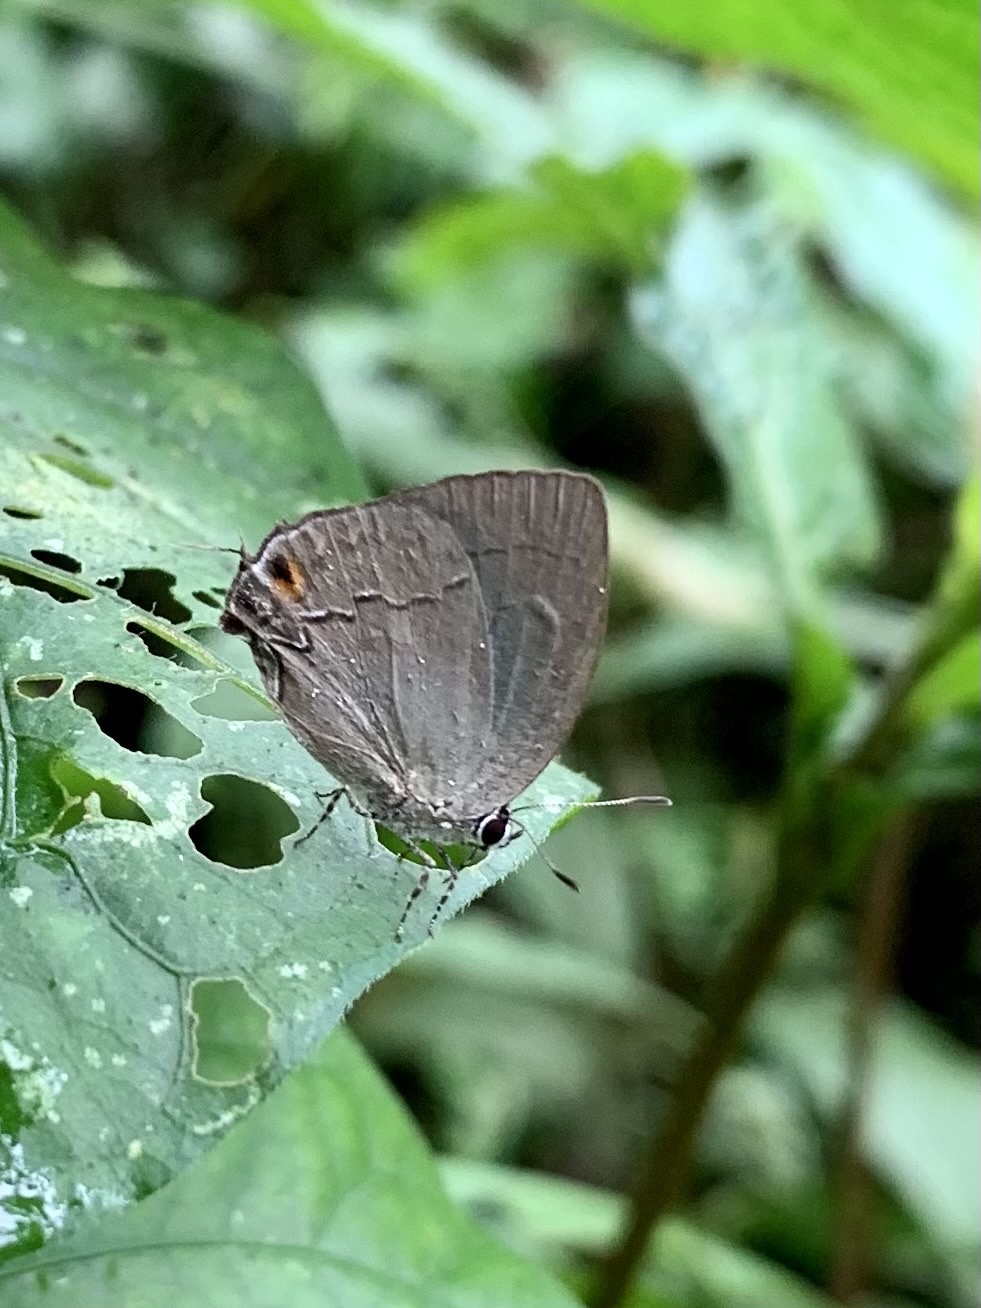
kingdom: Animalia
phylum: Arthropoda
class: Insecta
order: Lepidoptera
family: Lycaenidae
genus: Theclopsis
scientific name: Theclopsis demea
